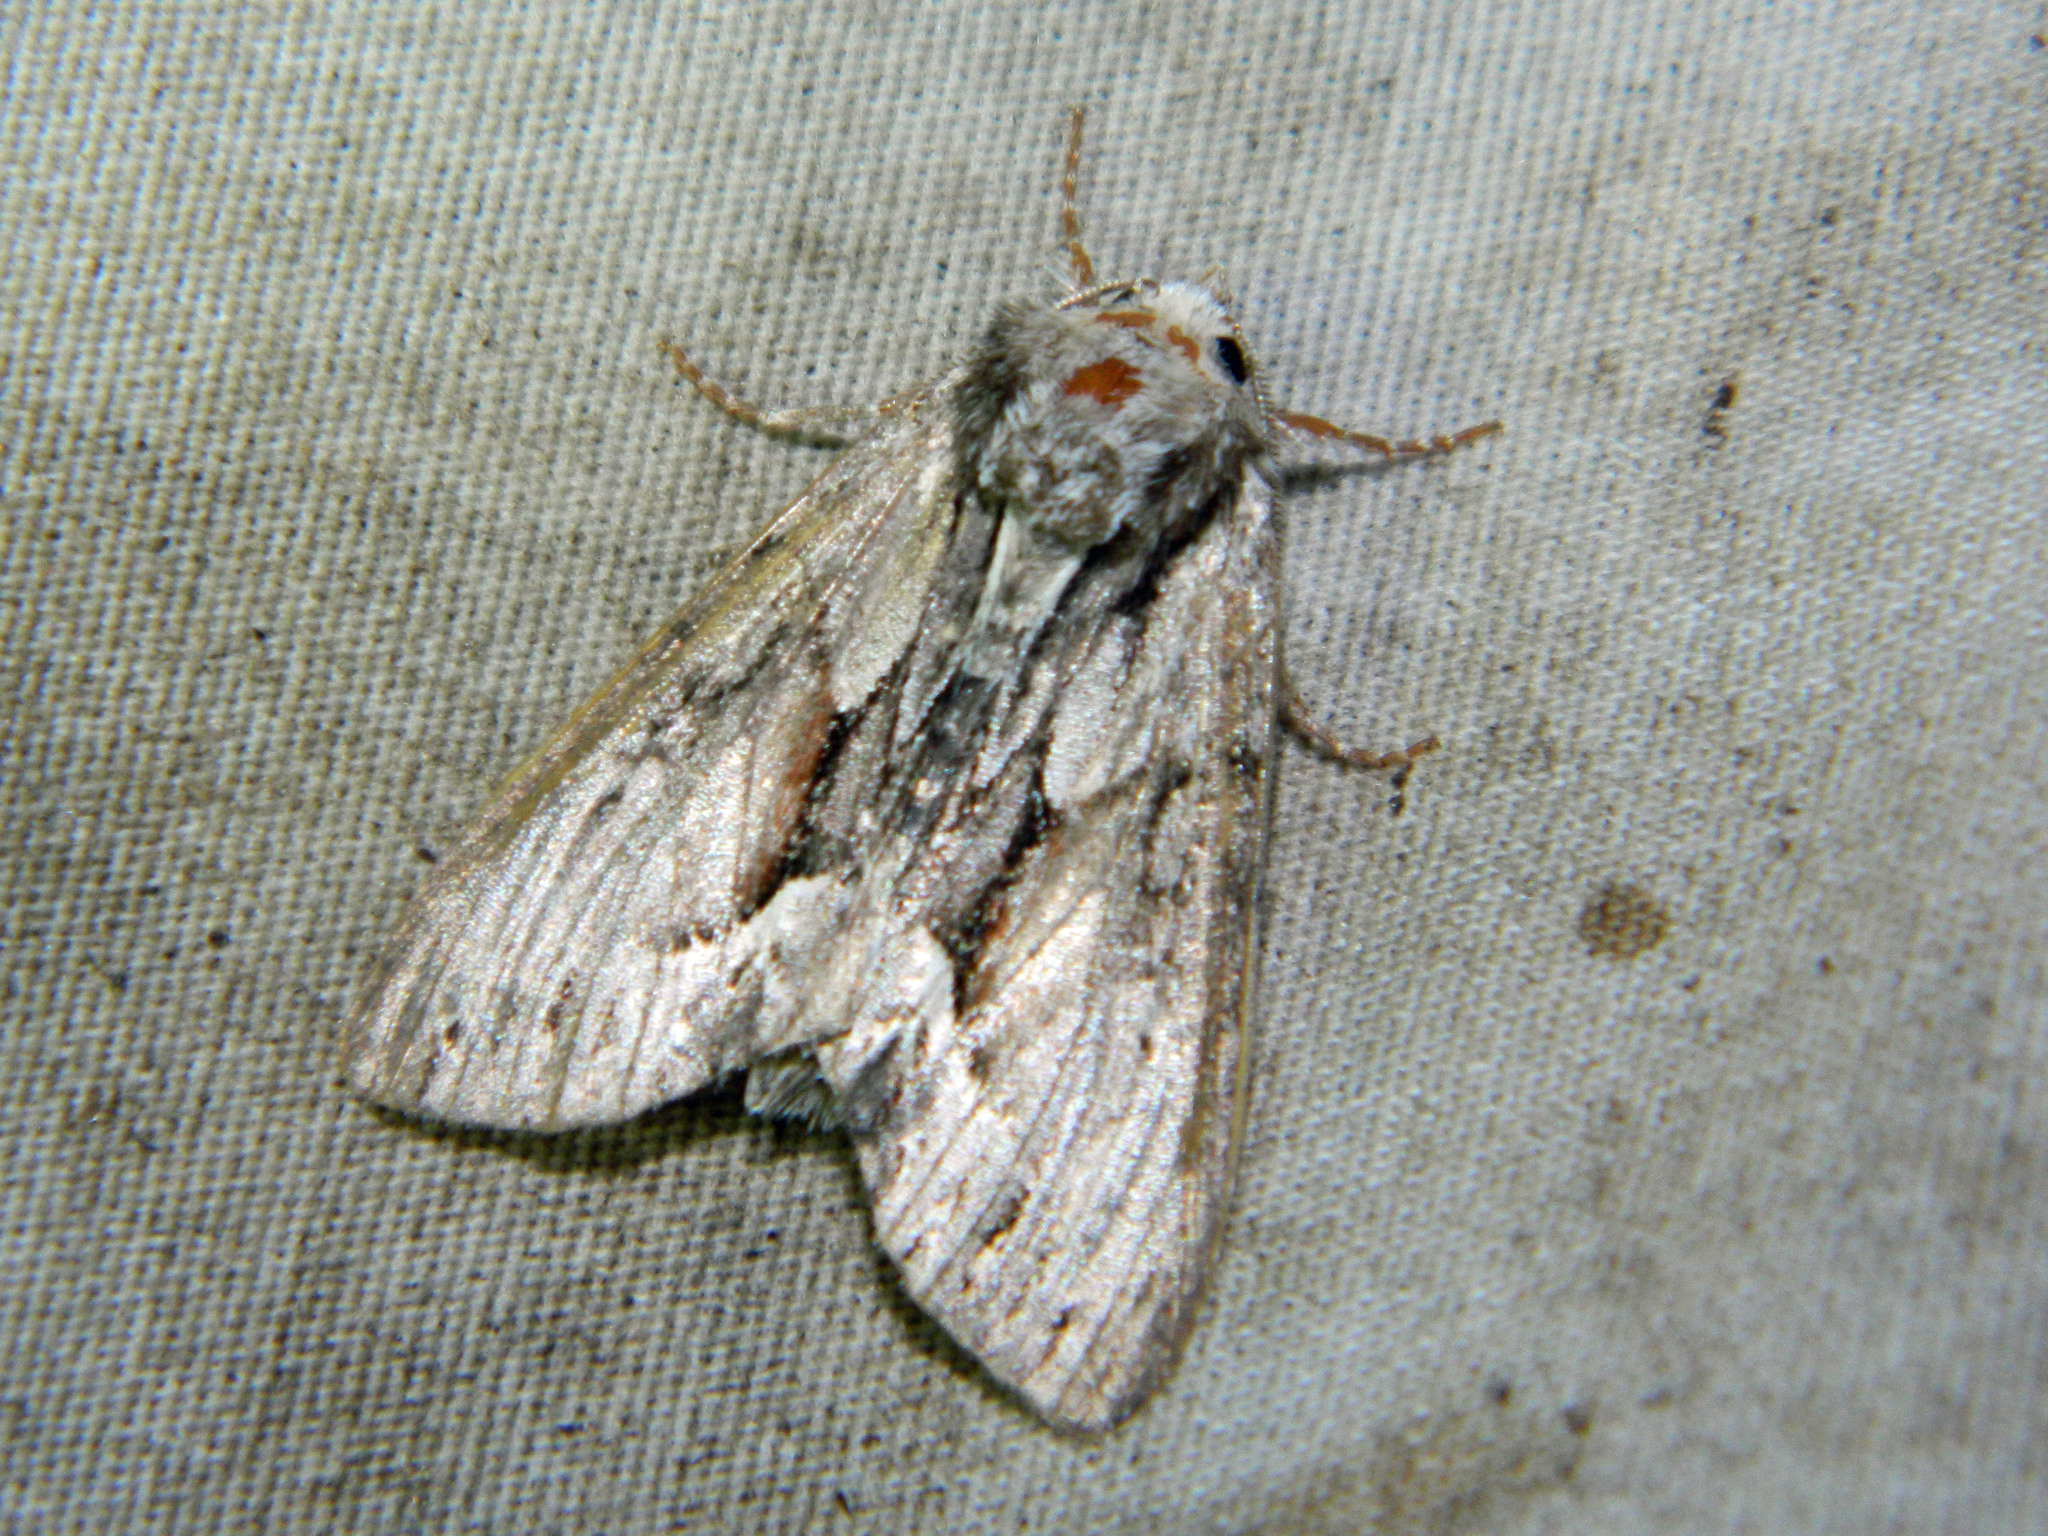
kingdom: Animalia
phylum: Arthropoda
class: Insecta
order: Lepidoptera
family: Noctuidae
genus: Hyppa
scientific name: Hyppa xylinoides
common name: Common hyppa moth
